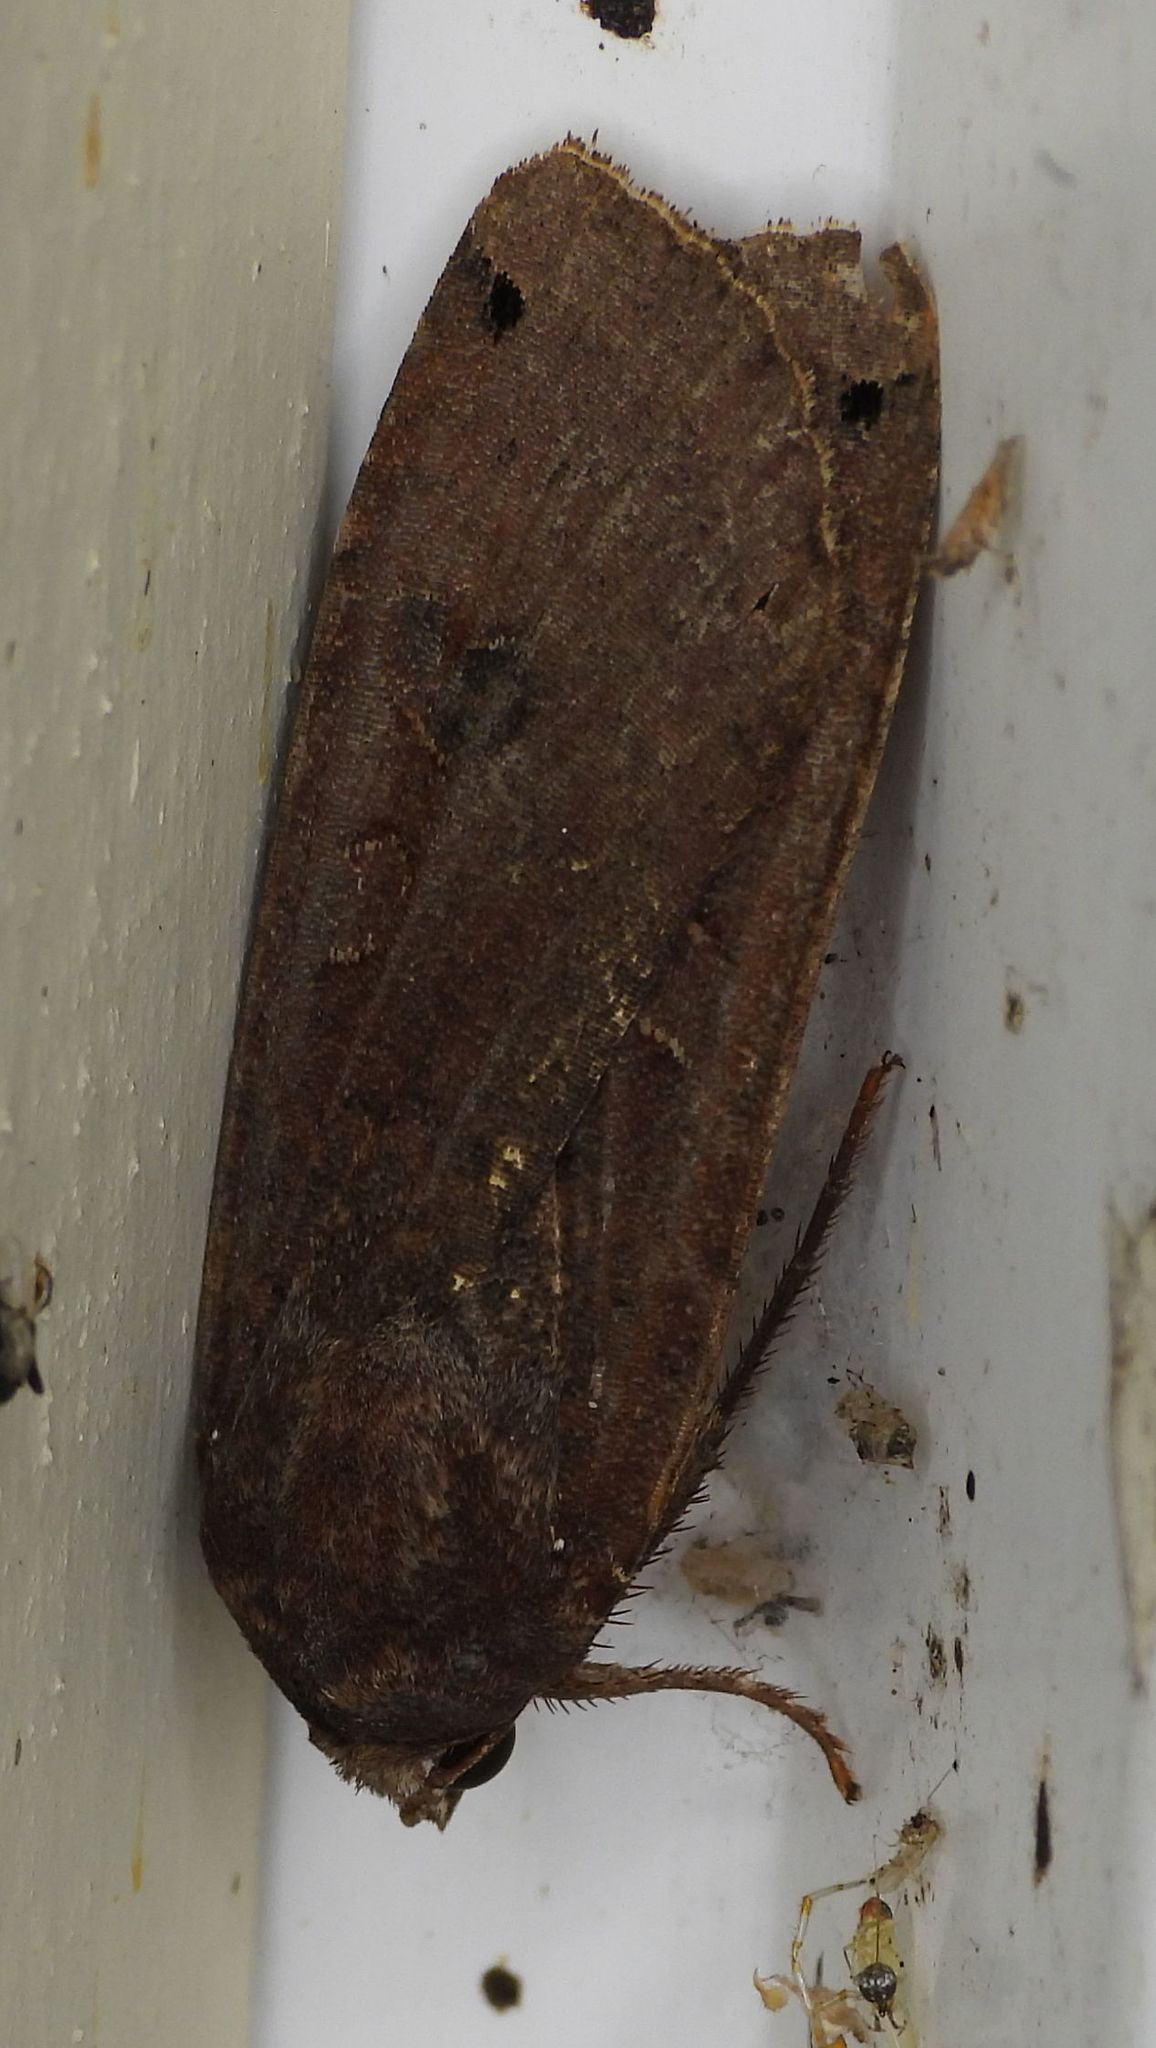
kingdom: Animalia
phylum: Arthropoda
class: Insecta
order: Lepidoptera
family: Noctuidae
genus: Noctua
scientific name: Noctua pronuba
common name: Large yellow underwing
